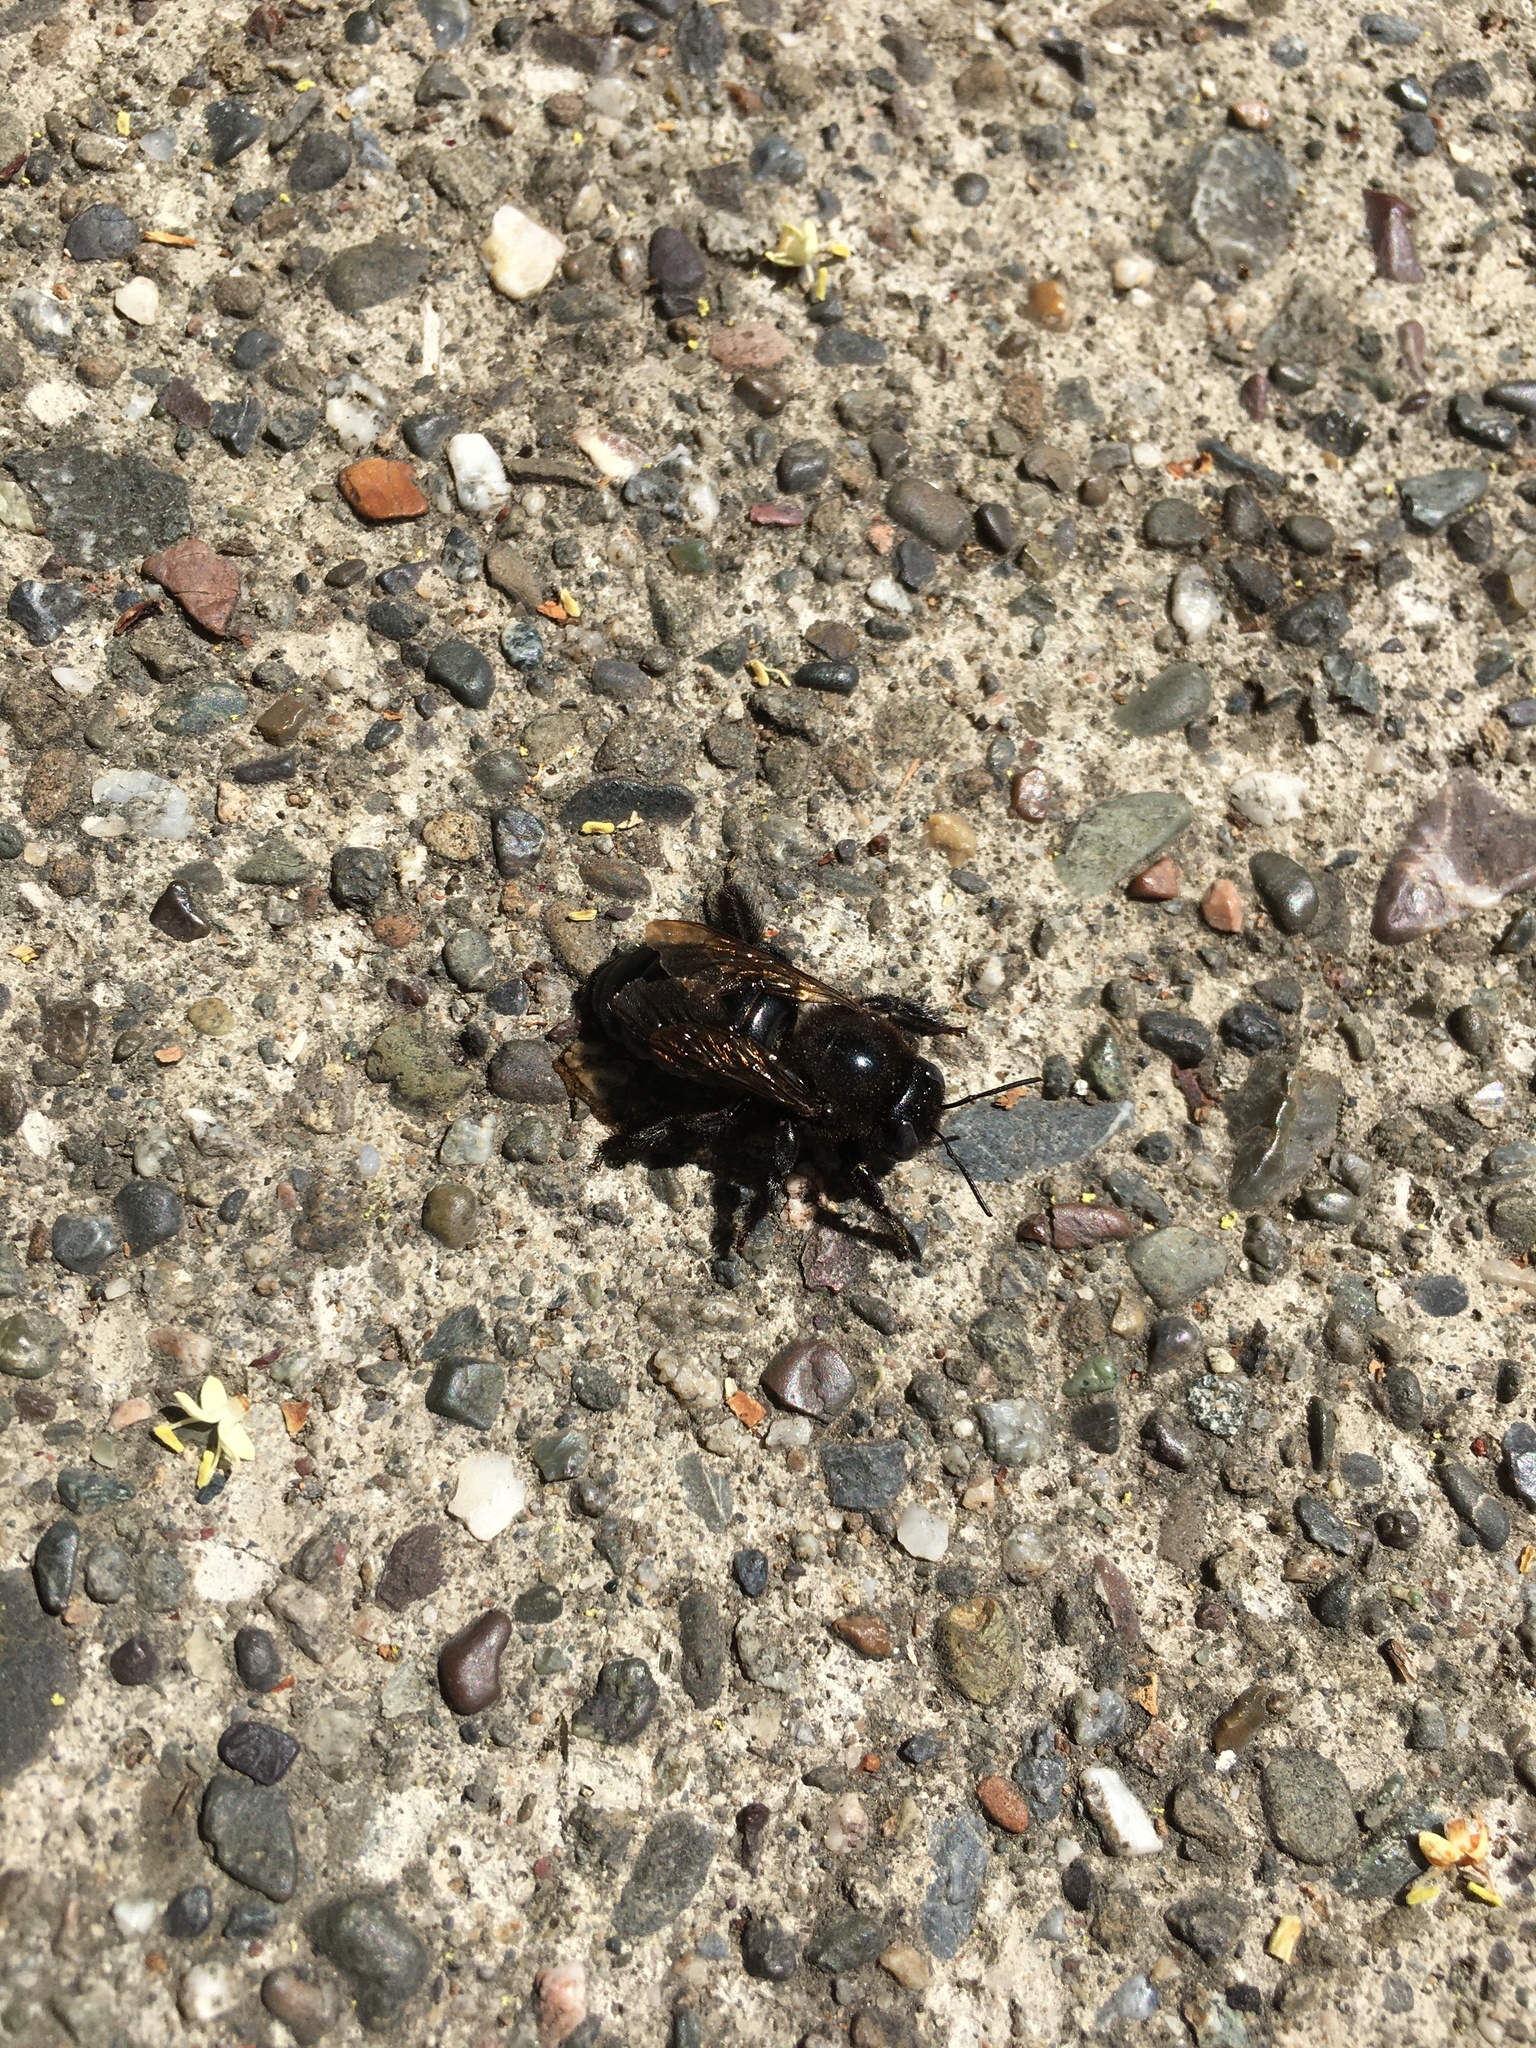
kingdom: Animalia
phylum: Arthropoda
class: Insecta
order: Hymenoptera
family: Apidae
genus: Xylocopa
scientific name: Xylocopa sonorina
